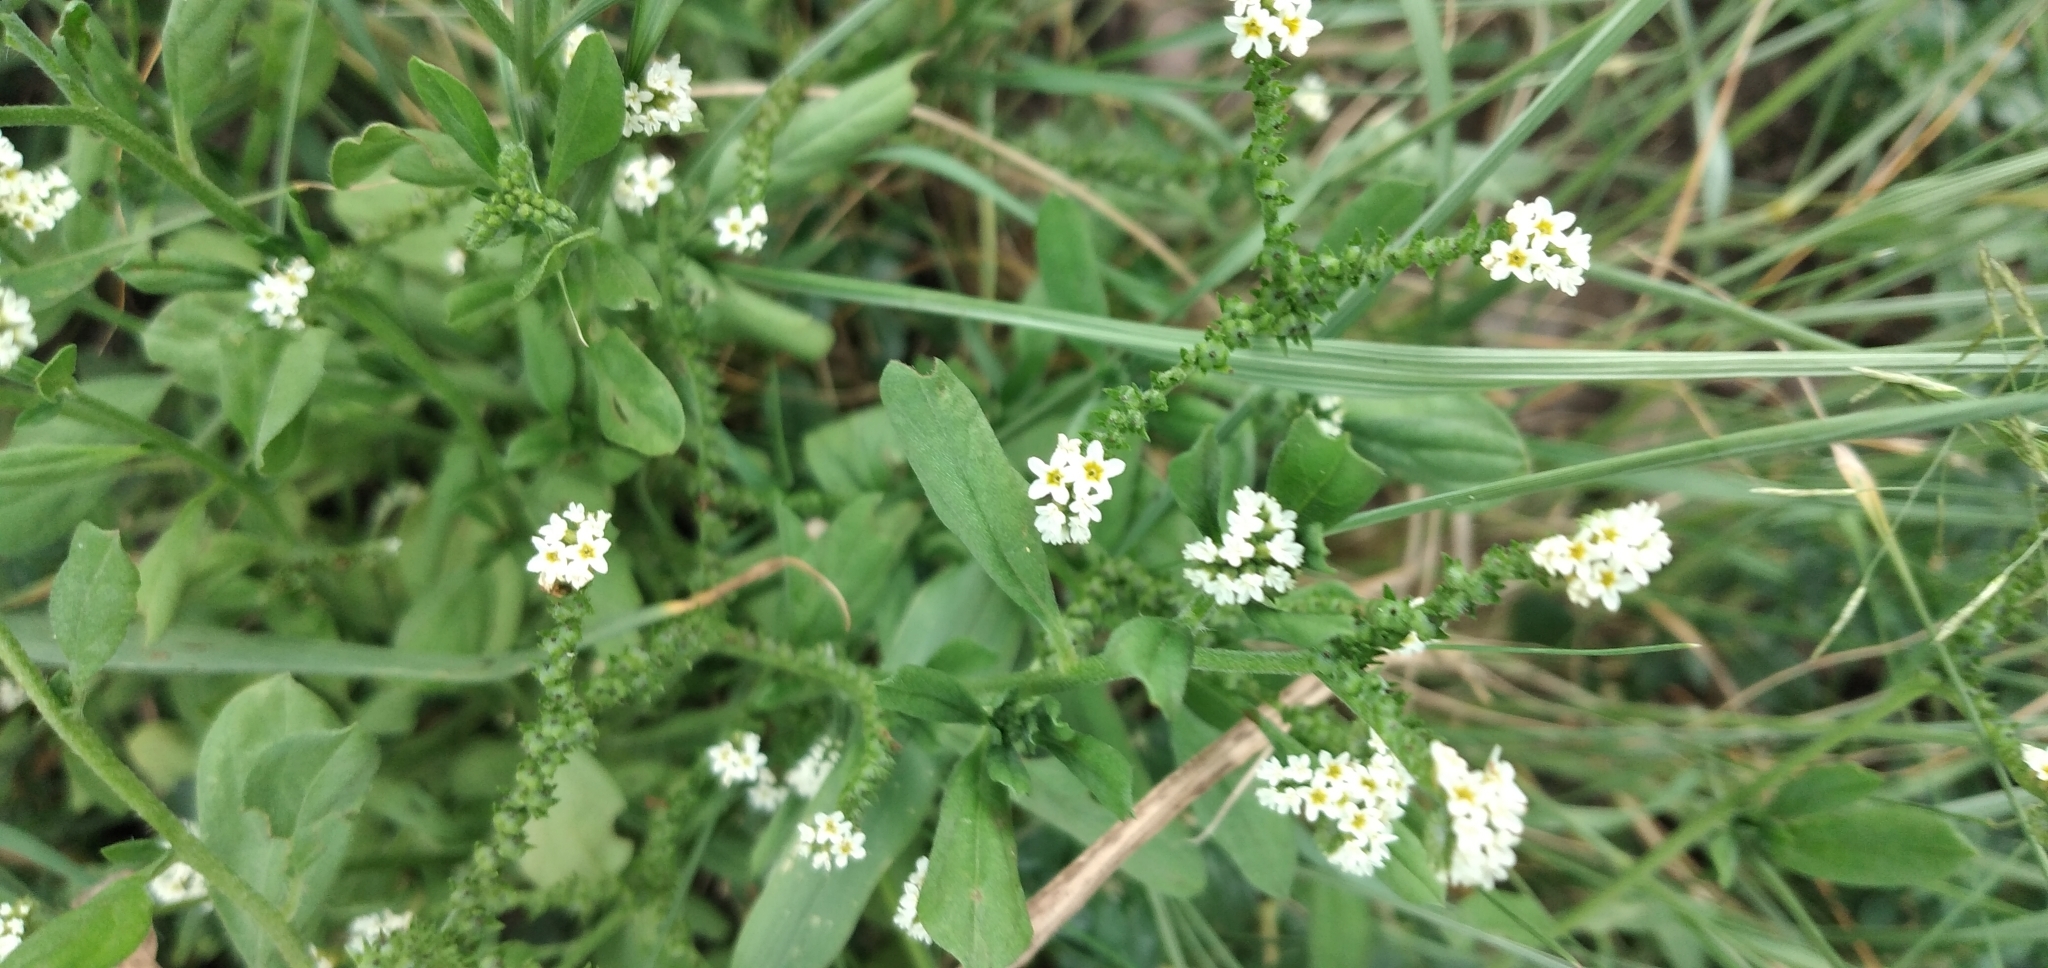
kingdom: Plantae
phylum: Tracheophyta
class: Magnoliopsida
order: Boraginales
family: Heliotropiaceae
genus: Euploca
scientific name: Euploca procumbens
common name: Fourspike heliotrope
